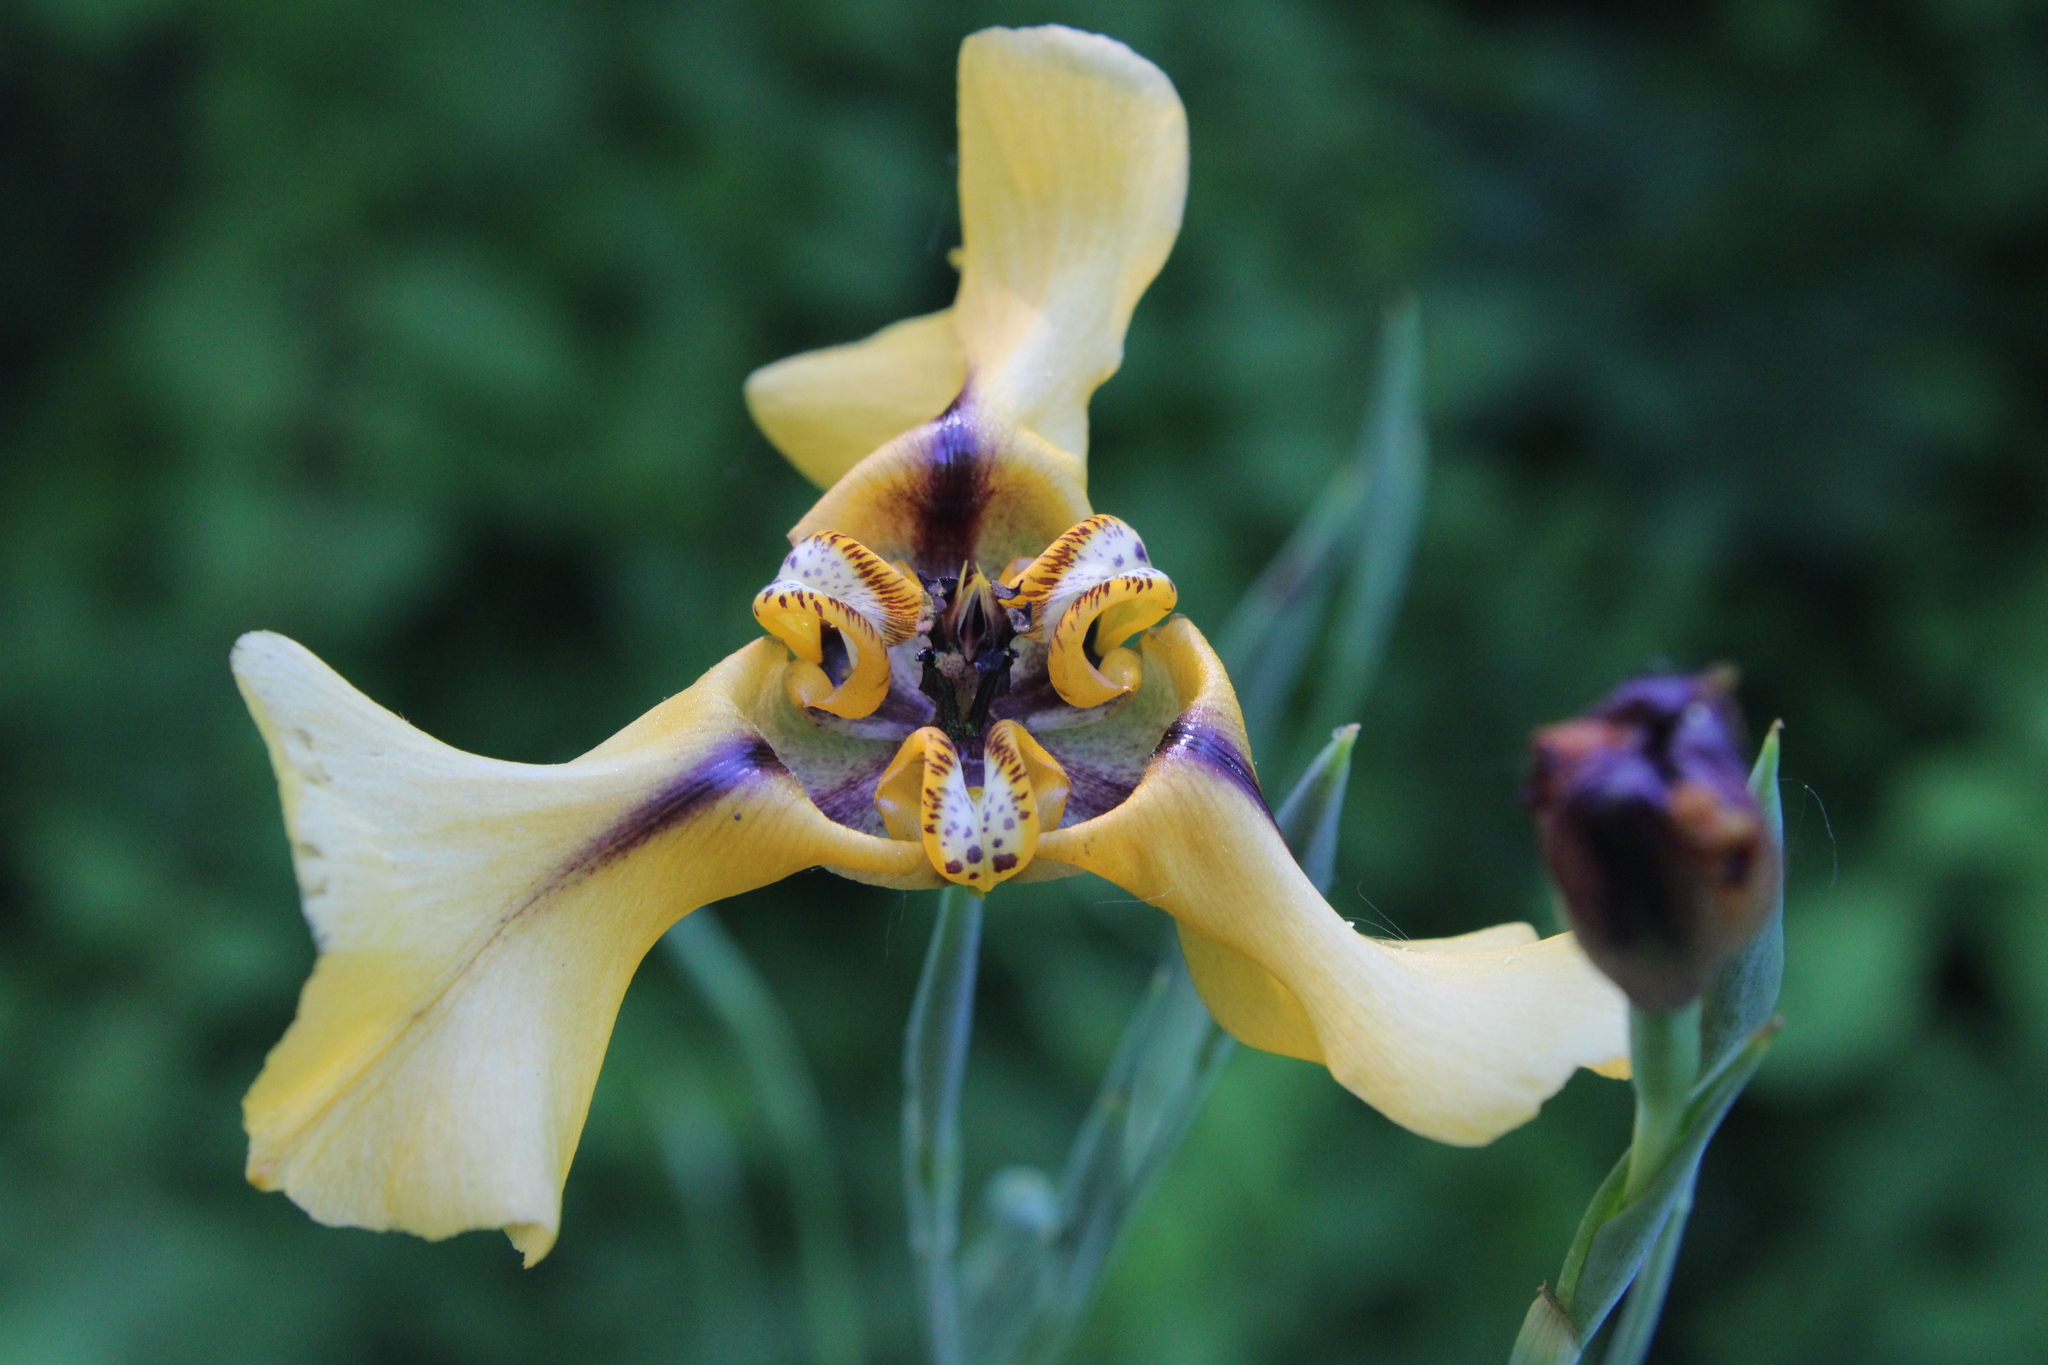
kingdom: Plantae
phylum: Tracheophyta
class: Liliopsida
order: Asparagales
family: Iridaceae
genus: Cypella
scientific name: Cypella herbertii
